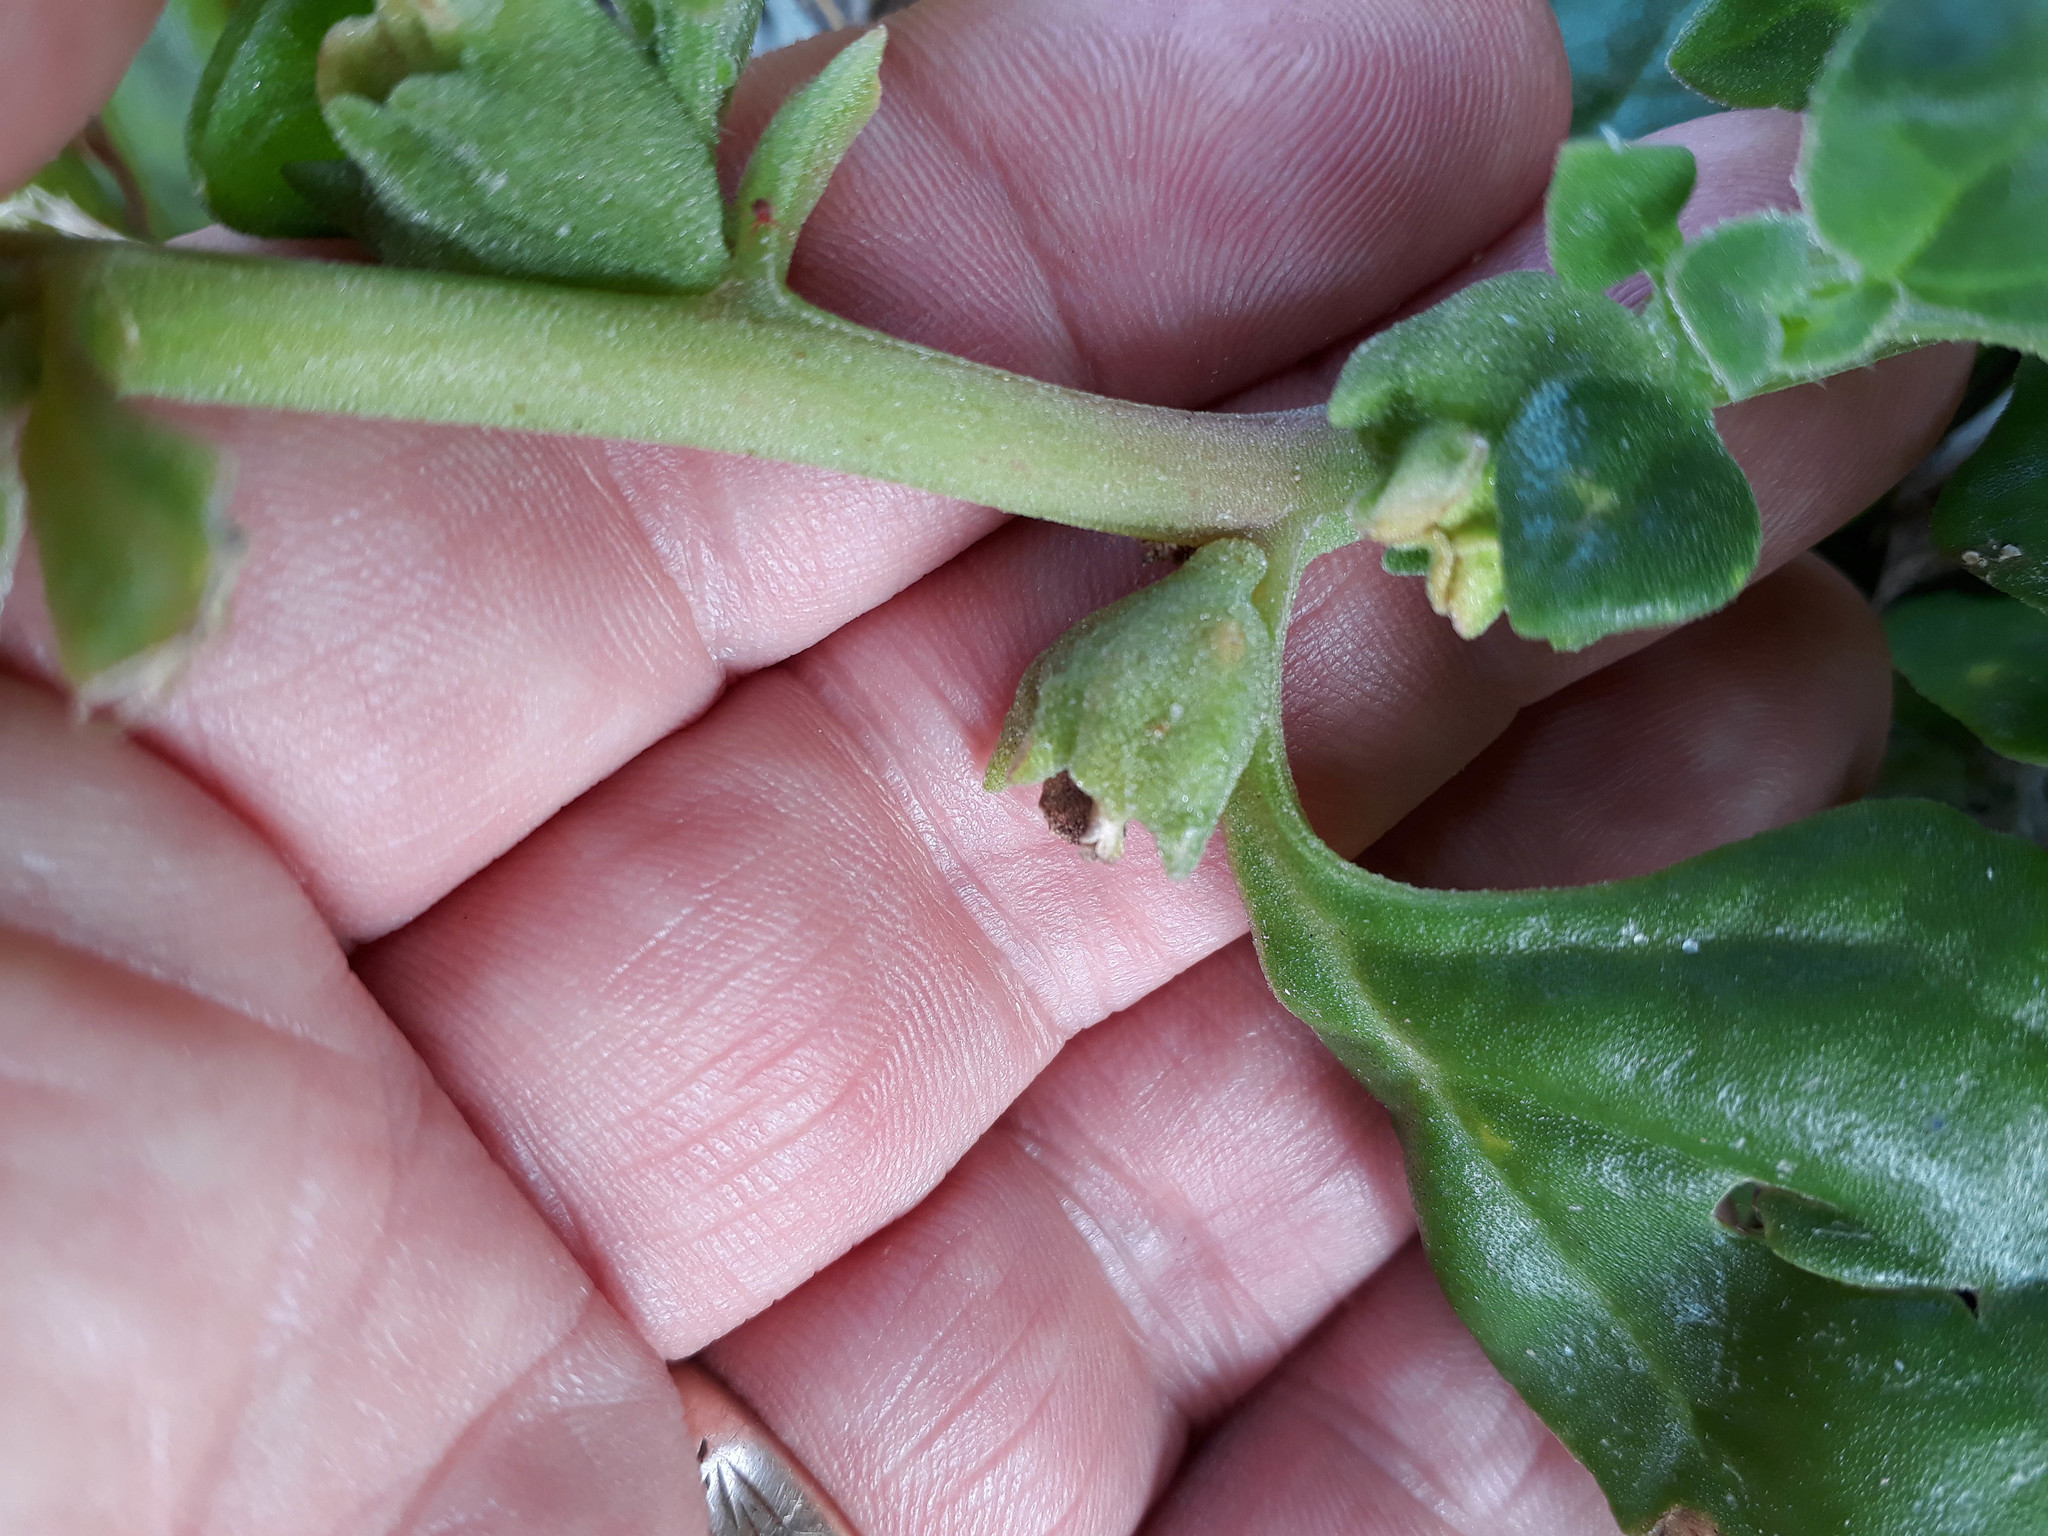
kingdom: Plantae
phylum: Tracheophyta
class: Magnoliopsida
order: Caryophyllales
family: Aizoaceae
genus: Tetragonia
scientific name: Tetragonia tetragonoides
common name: New zealand-spinach
